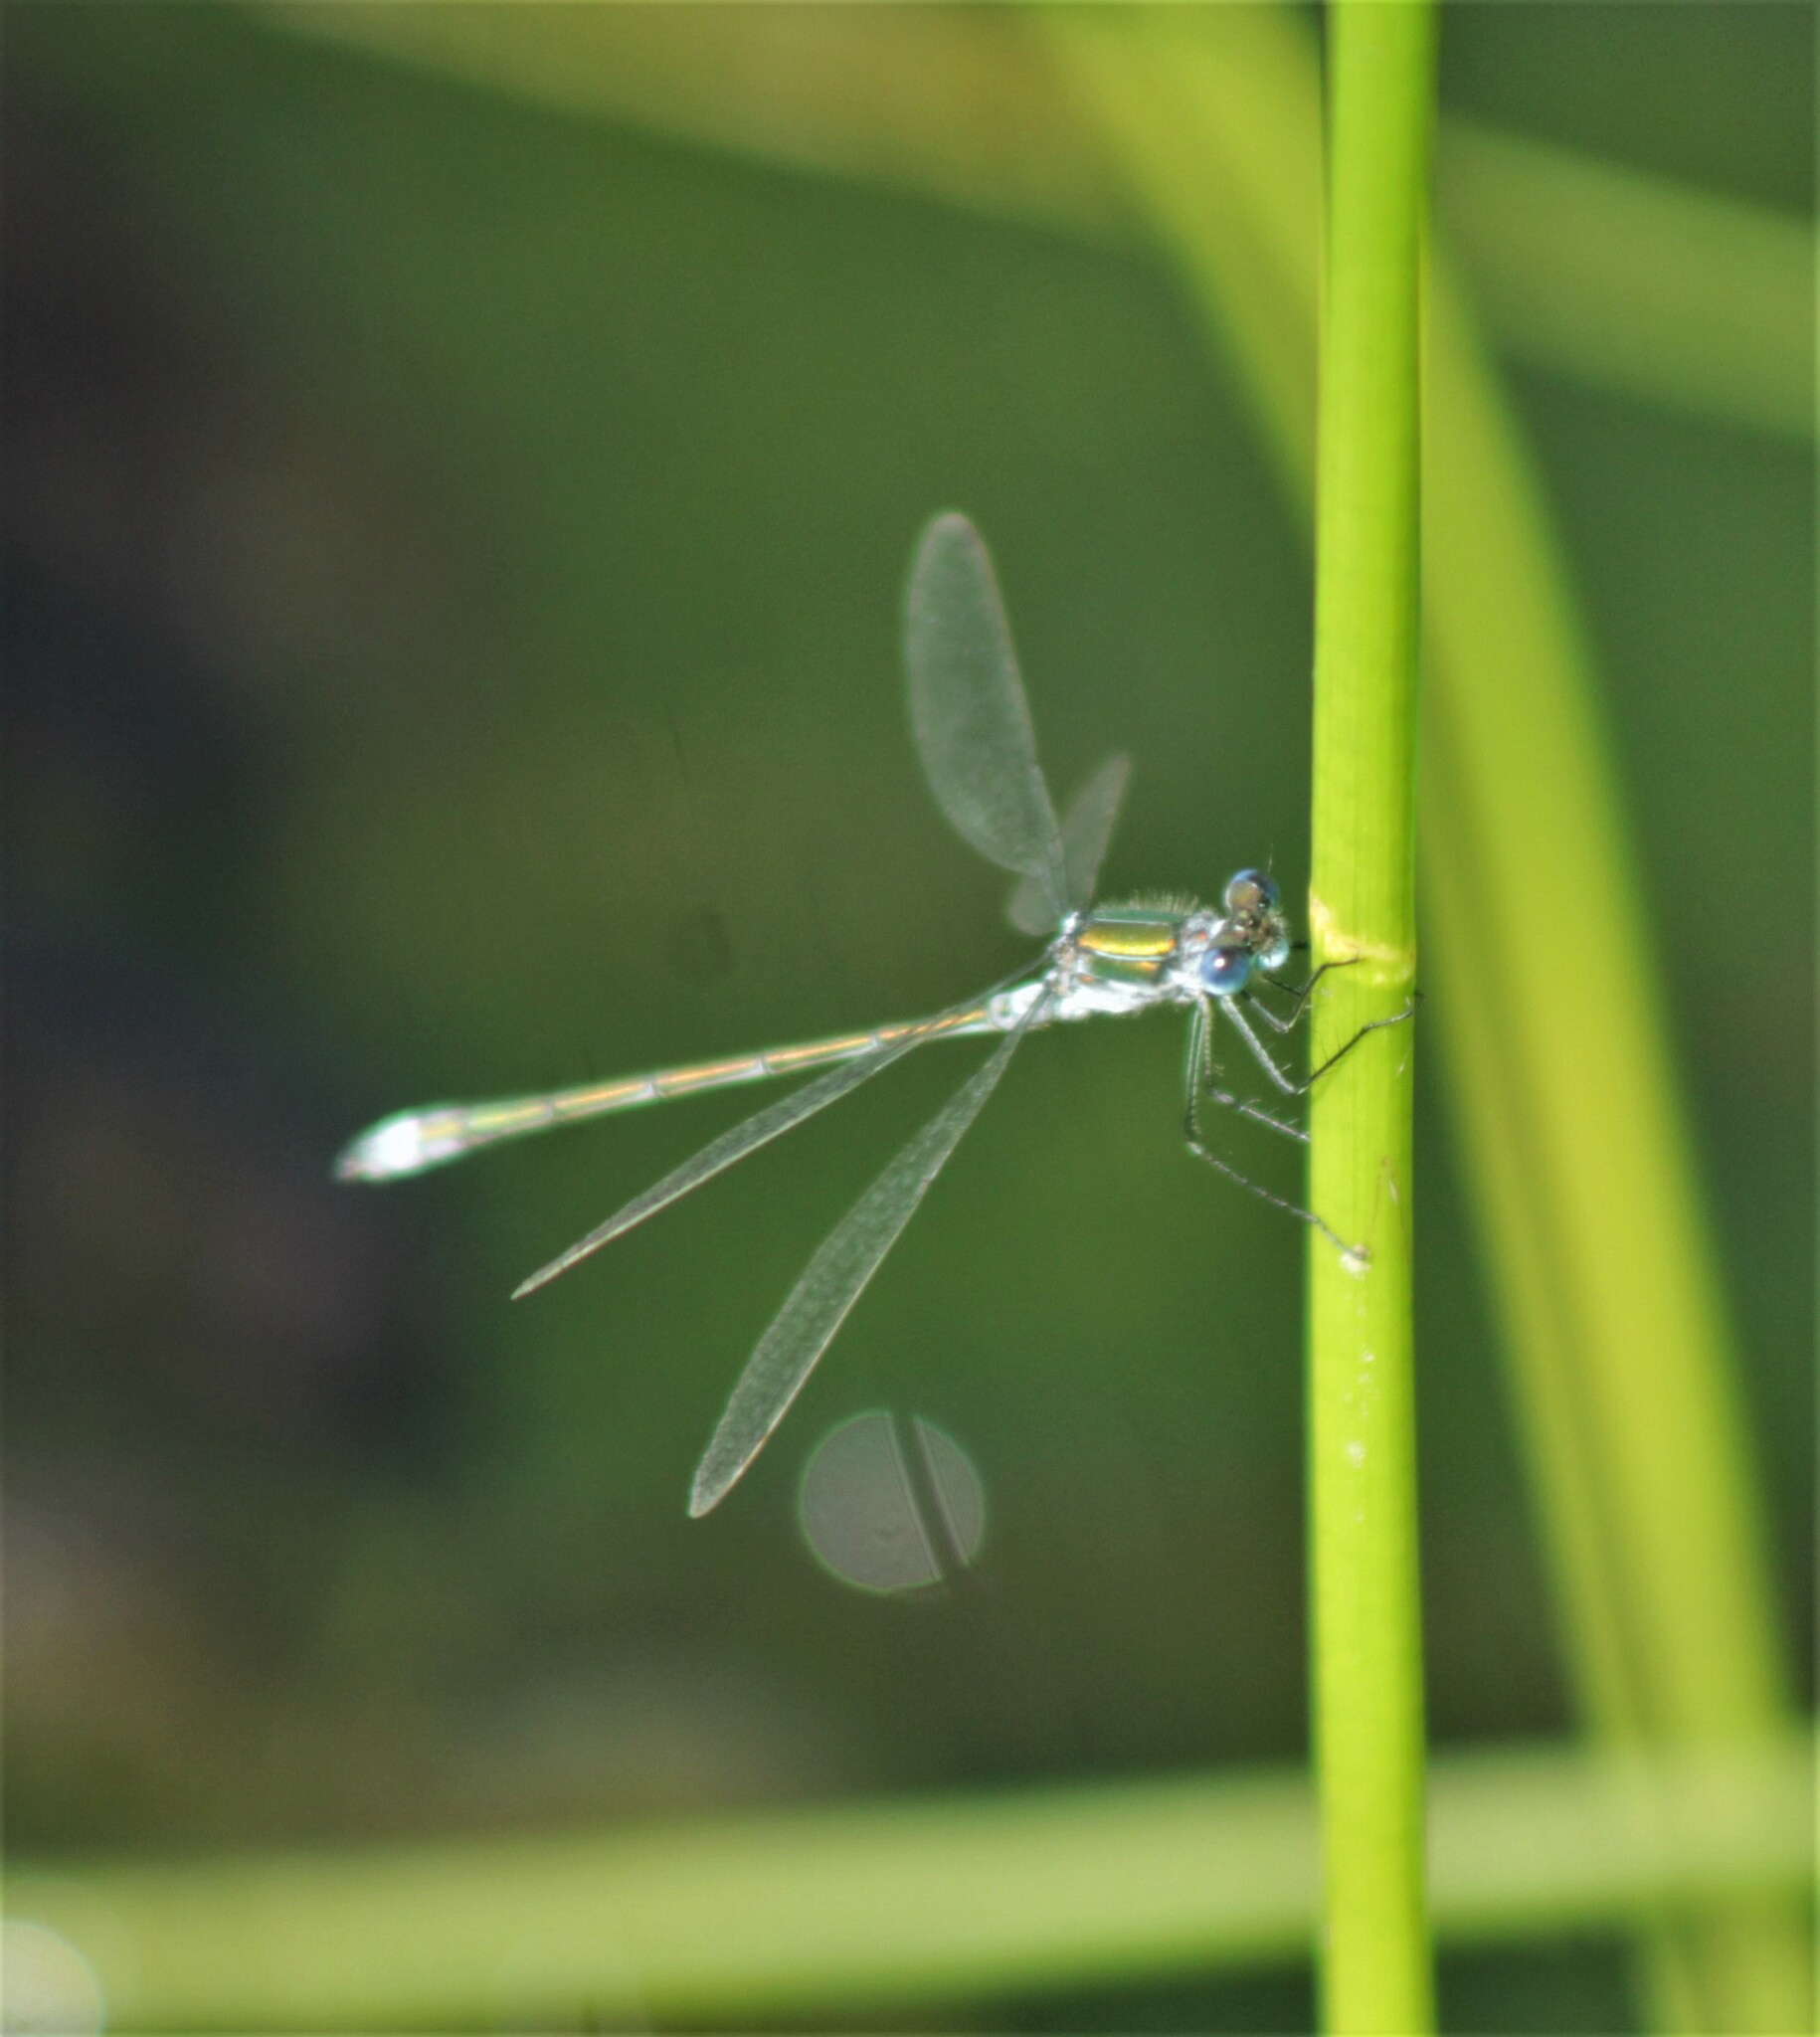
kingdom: Animalia
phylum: Arthropoda
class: Insecta
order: Odonata
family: Lestidae
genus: Lestes
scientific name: Lestes sponsa
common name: Common spreadwing
